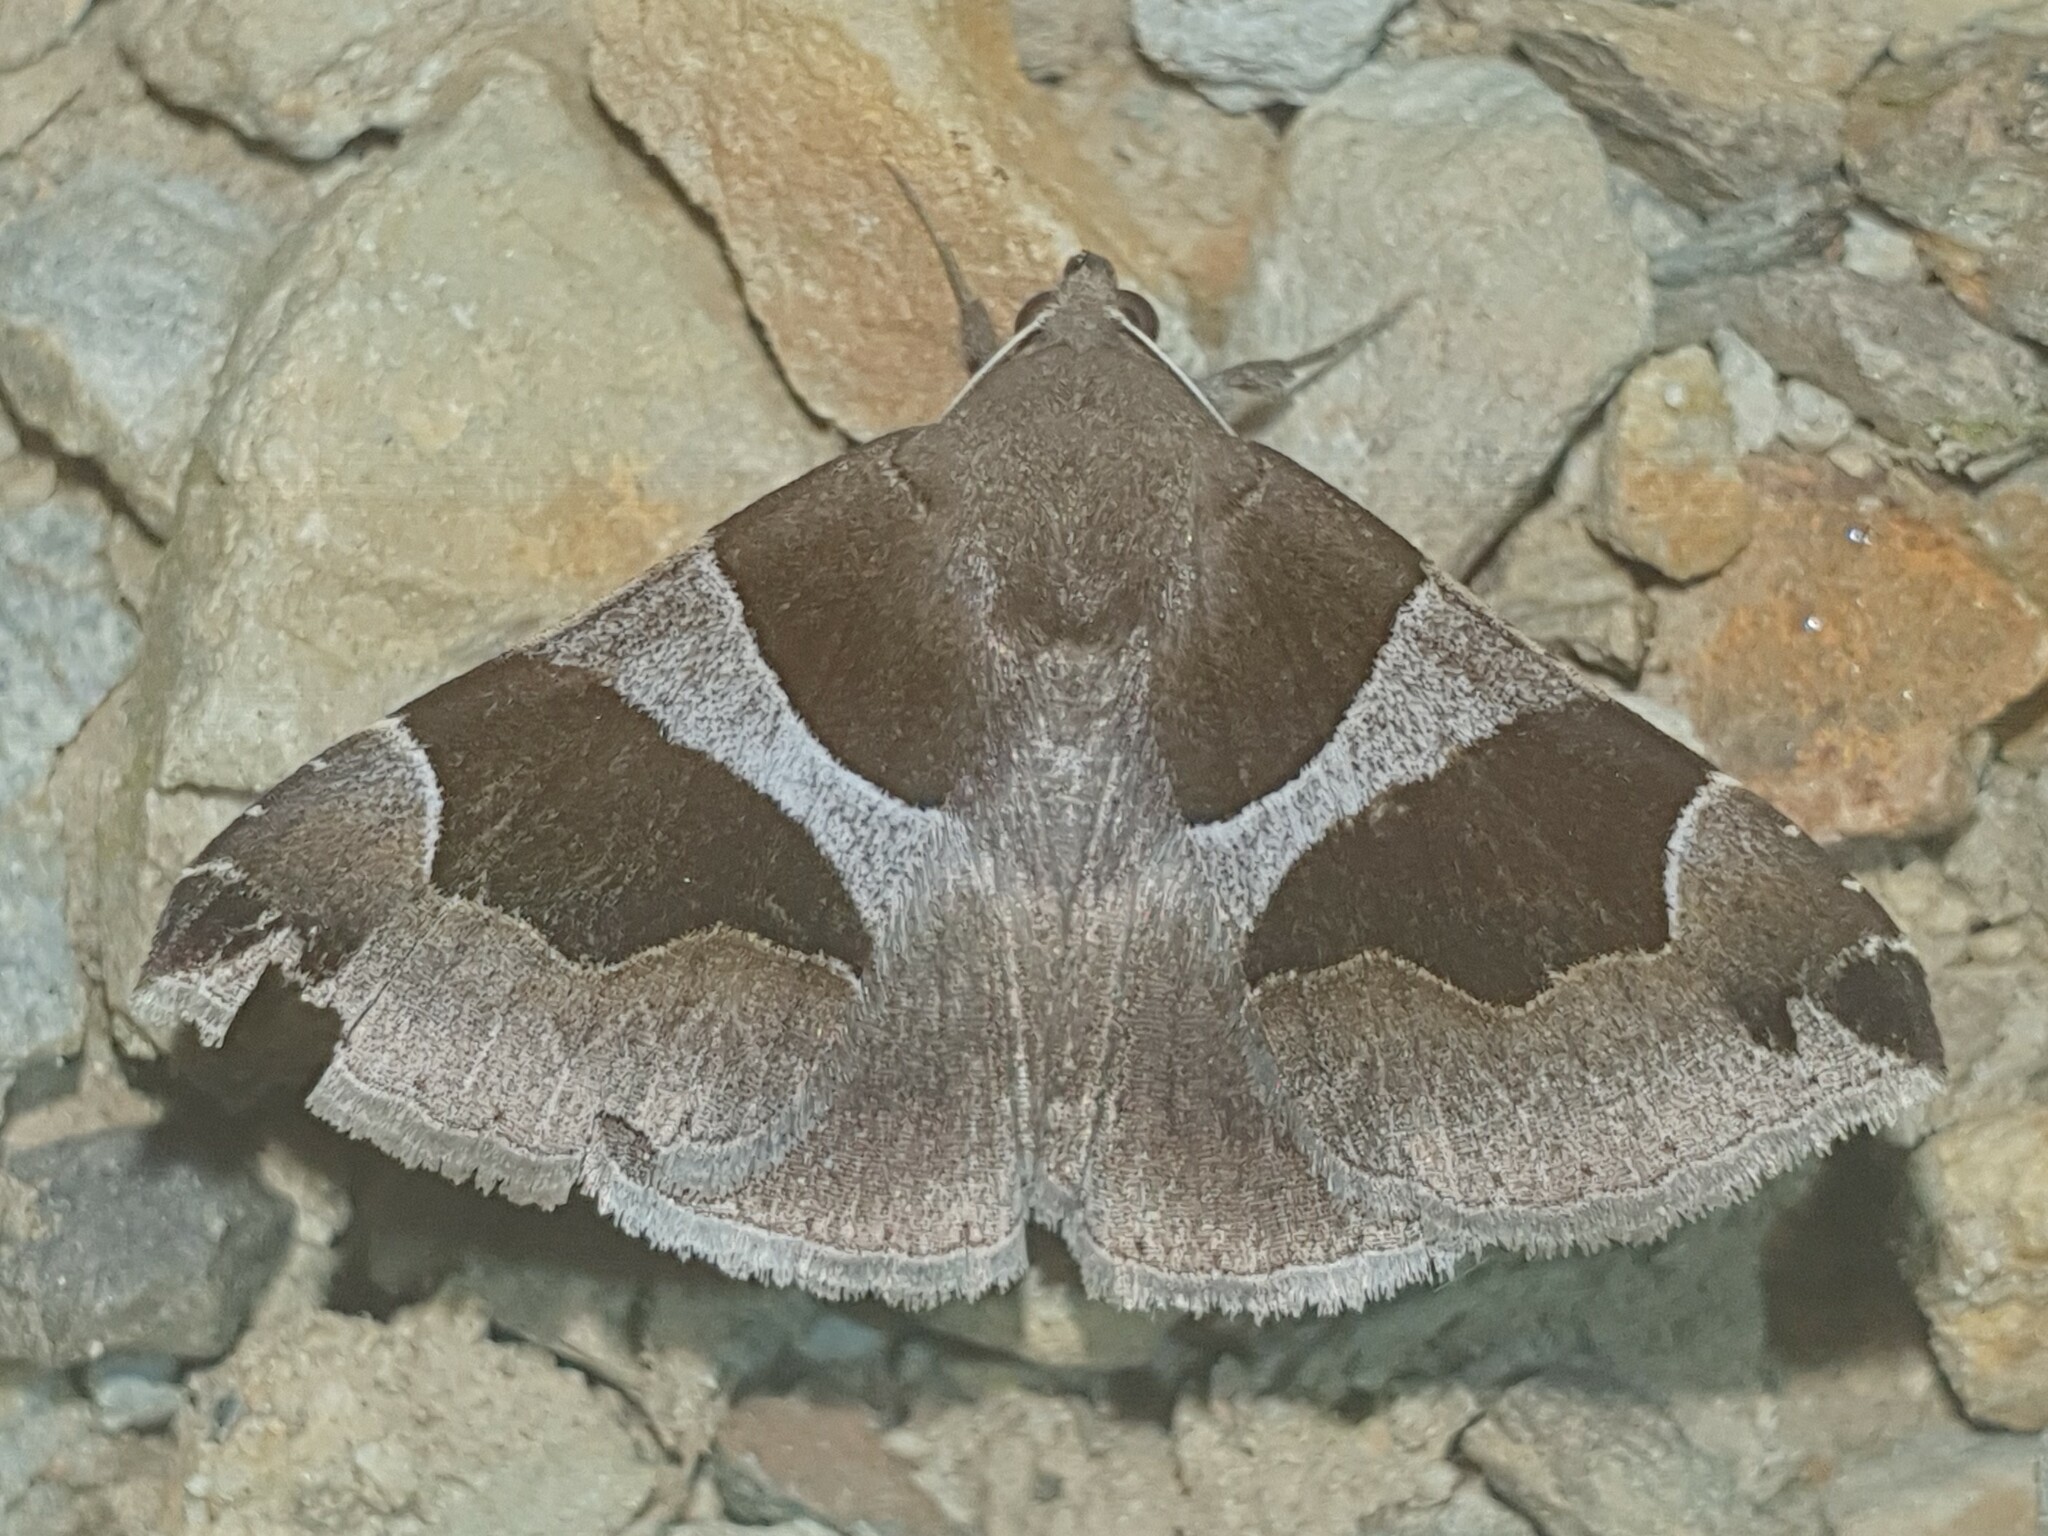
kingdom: Animalia
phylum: Arthropoda
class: Insecta
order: Lepidoptera
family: Erebidae
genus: Dysgonia
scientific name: Dysgonia algira
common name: Passenger
